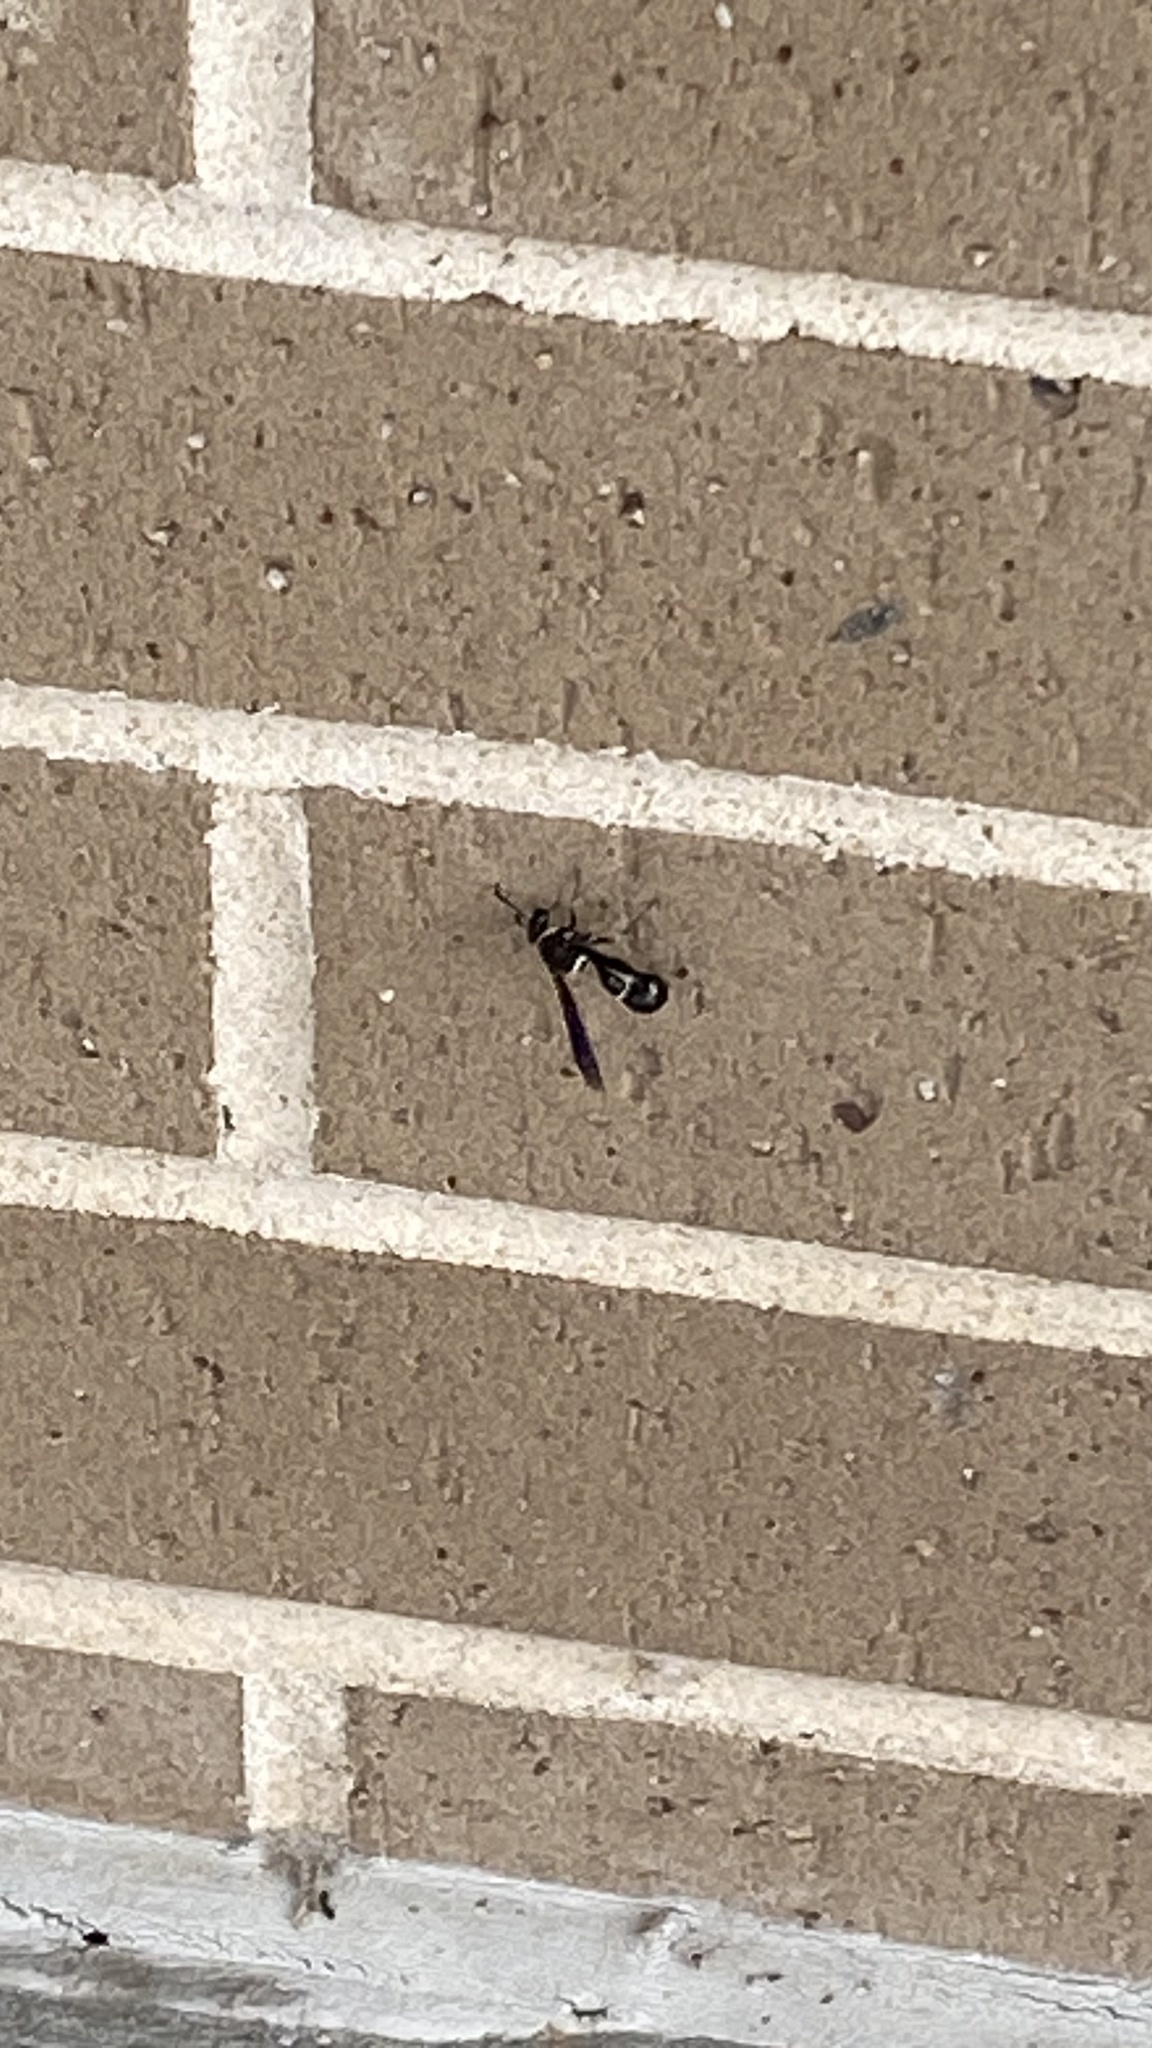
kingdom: Animalia
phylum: Arthropoda
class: Insecta
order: Hymenoptera
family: Vespidae
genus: Eumenes
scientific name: Eumenes fraternus
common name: Fraternal potter wasp
